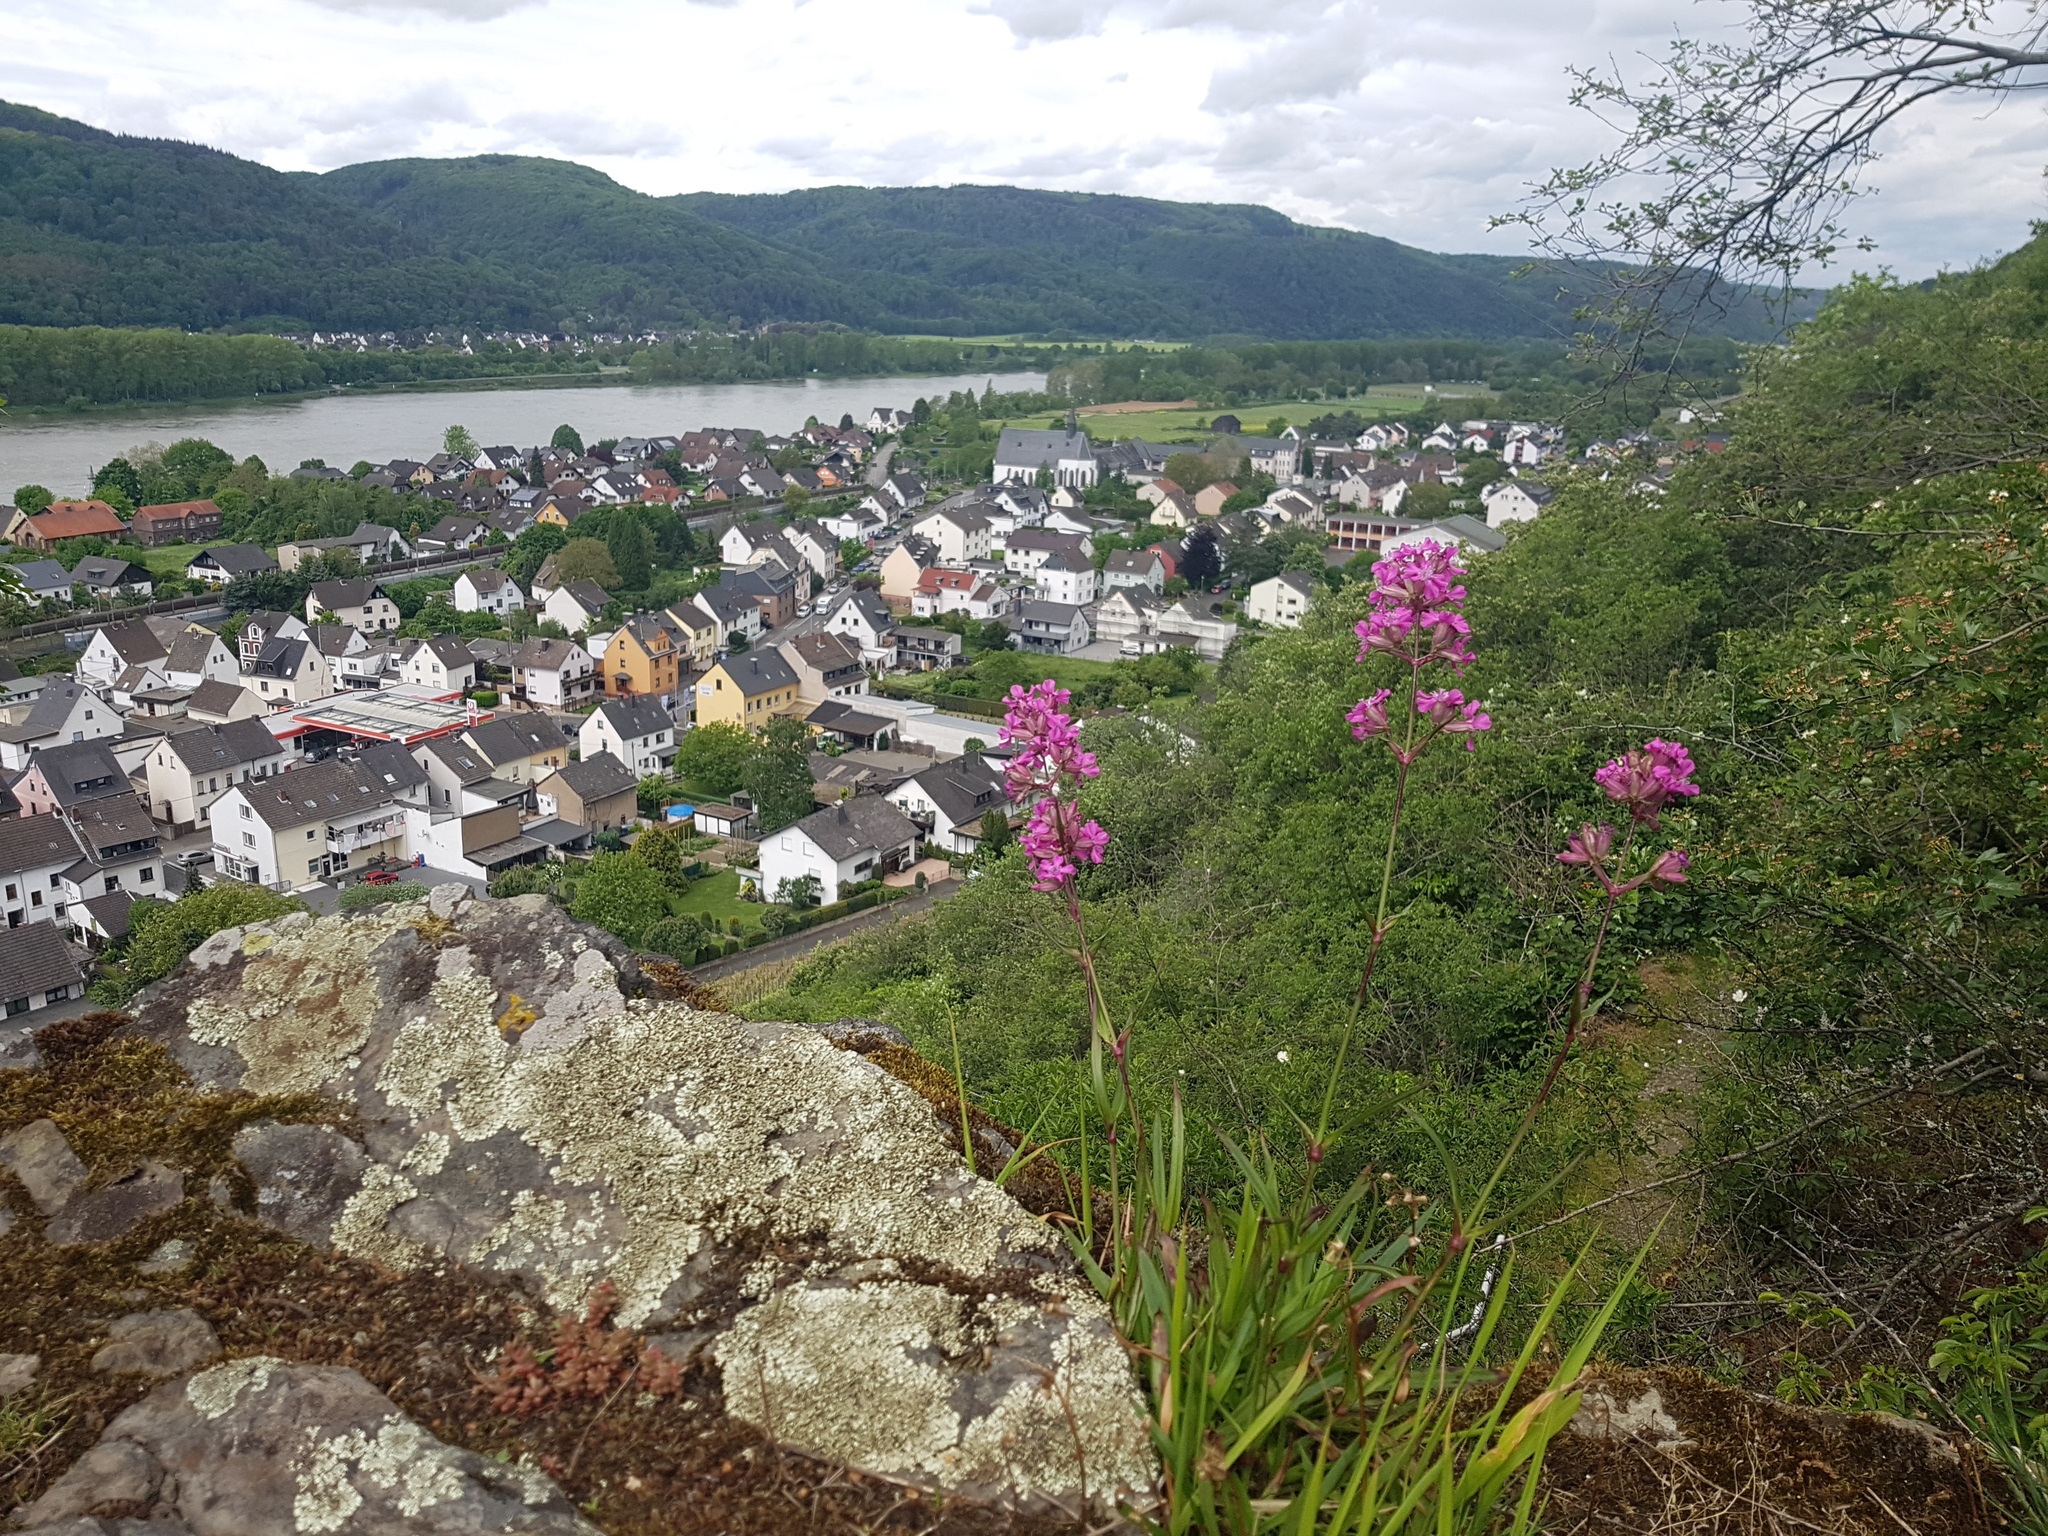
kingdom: Plantae
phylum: Tracheophyta
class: Magnoliopsida
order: Caryophyllales
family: Caryophyllaceae
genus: Viscaria
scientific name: Viscaria vulgaris
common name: Clammy campion
